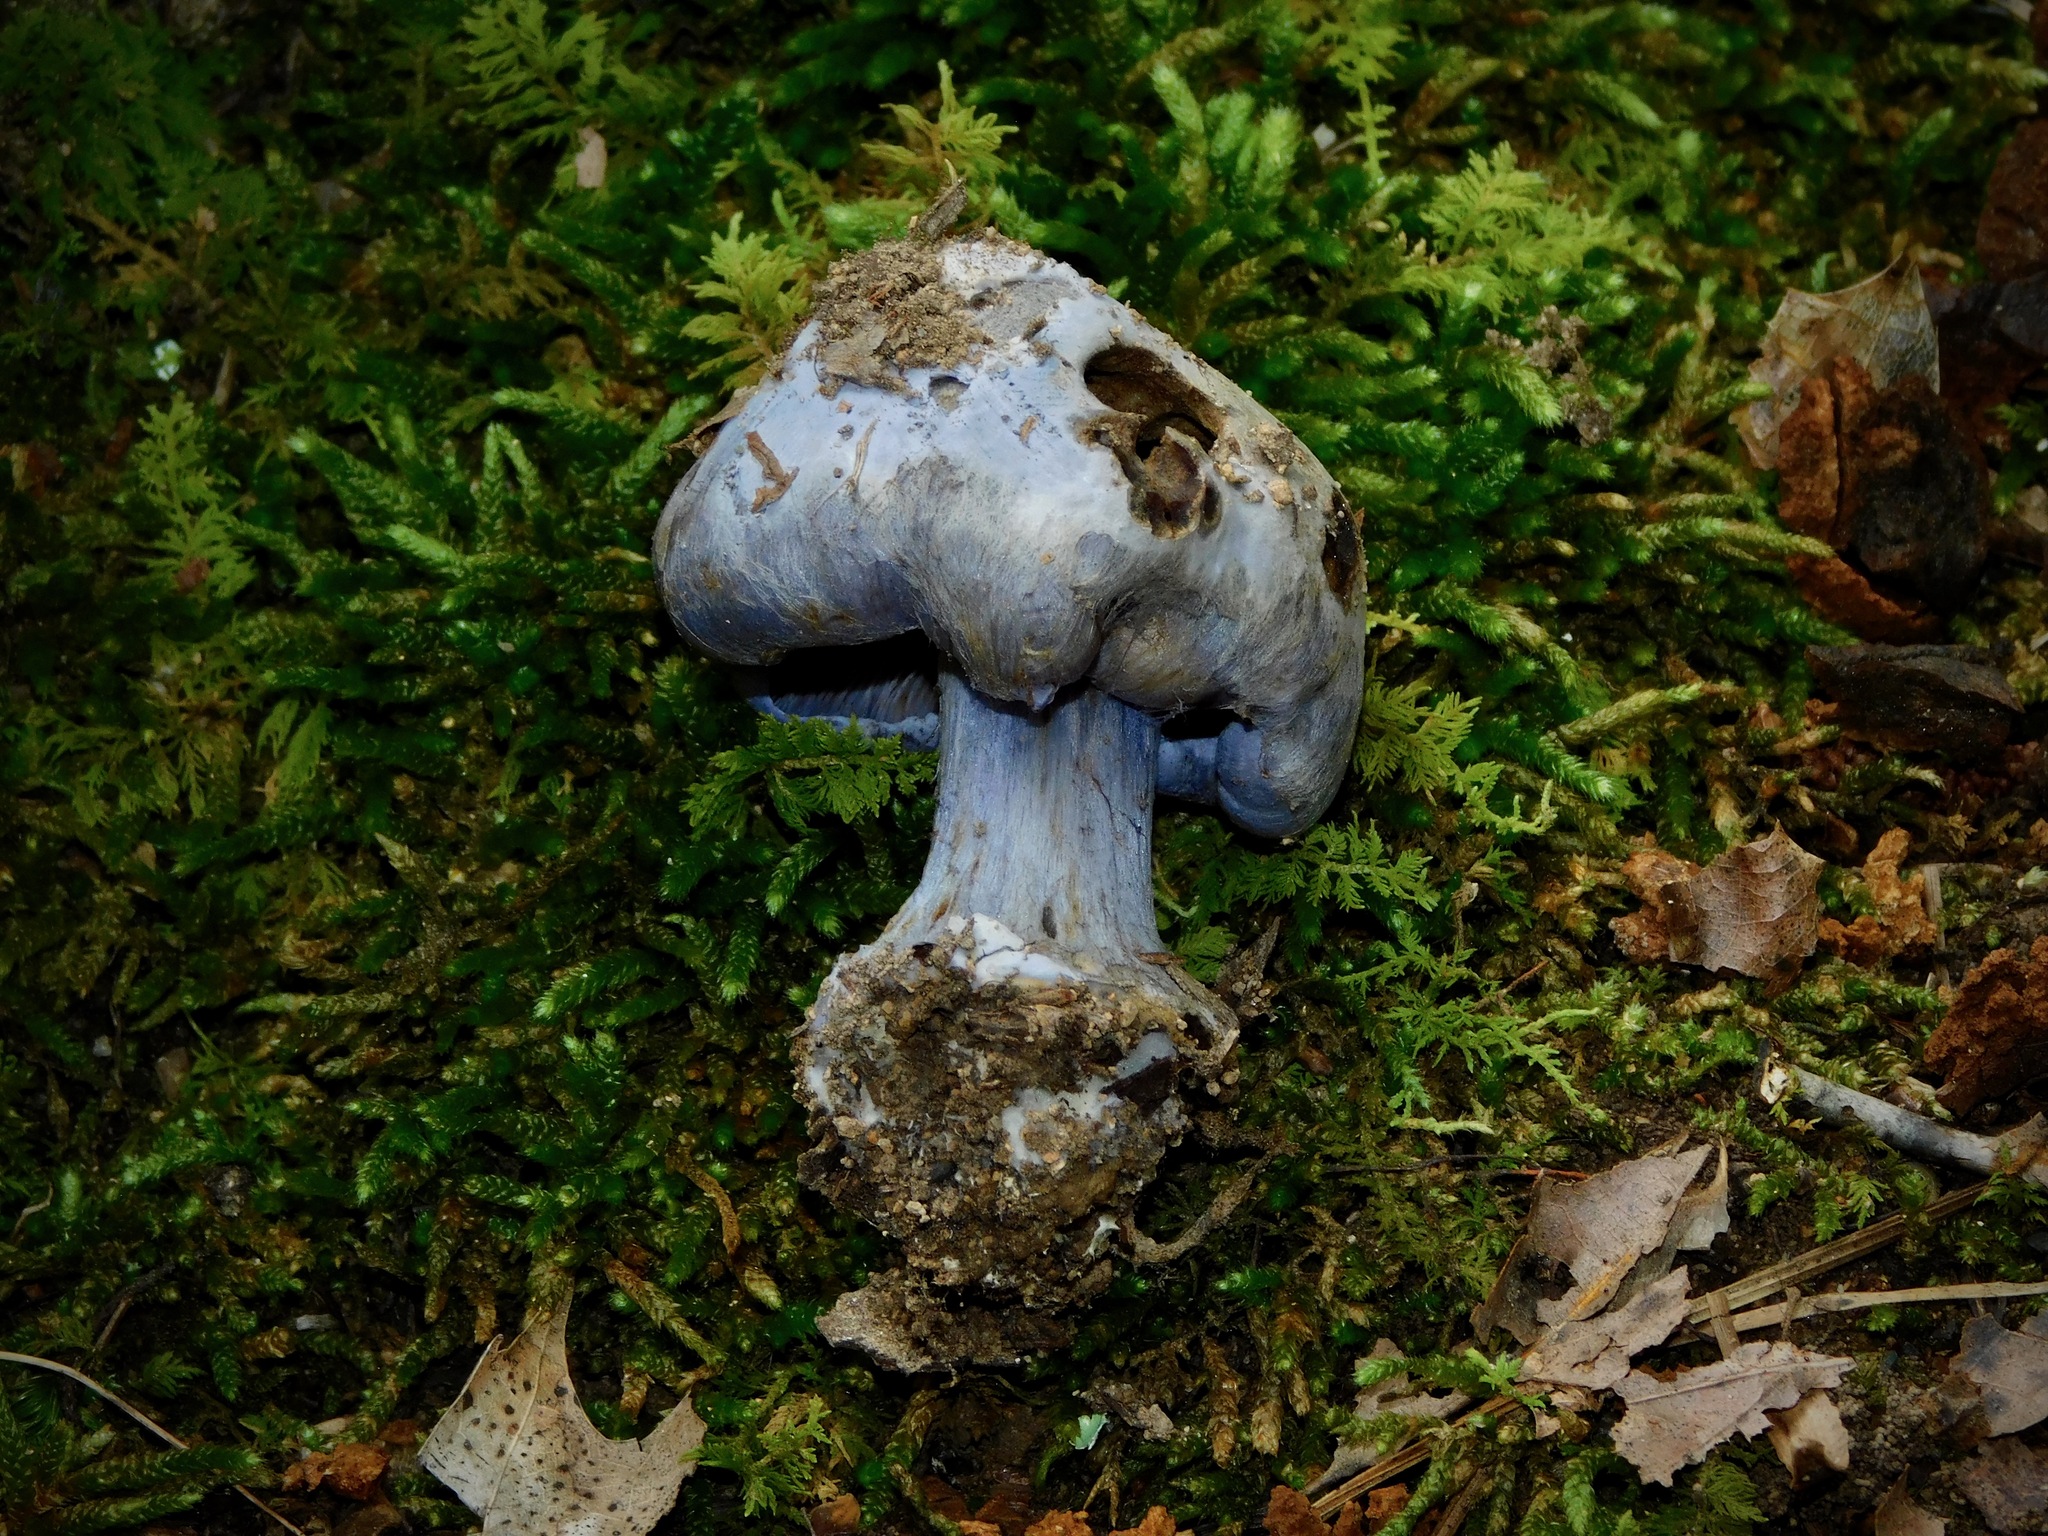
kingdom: Fungi
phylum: Basidiomycota
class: Agaricomycetes
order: Russulales
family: Russulaceae
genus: Lactarius
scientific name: Lactarius indigo
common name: Indigo milk cap
